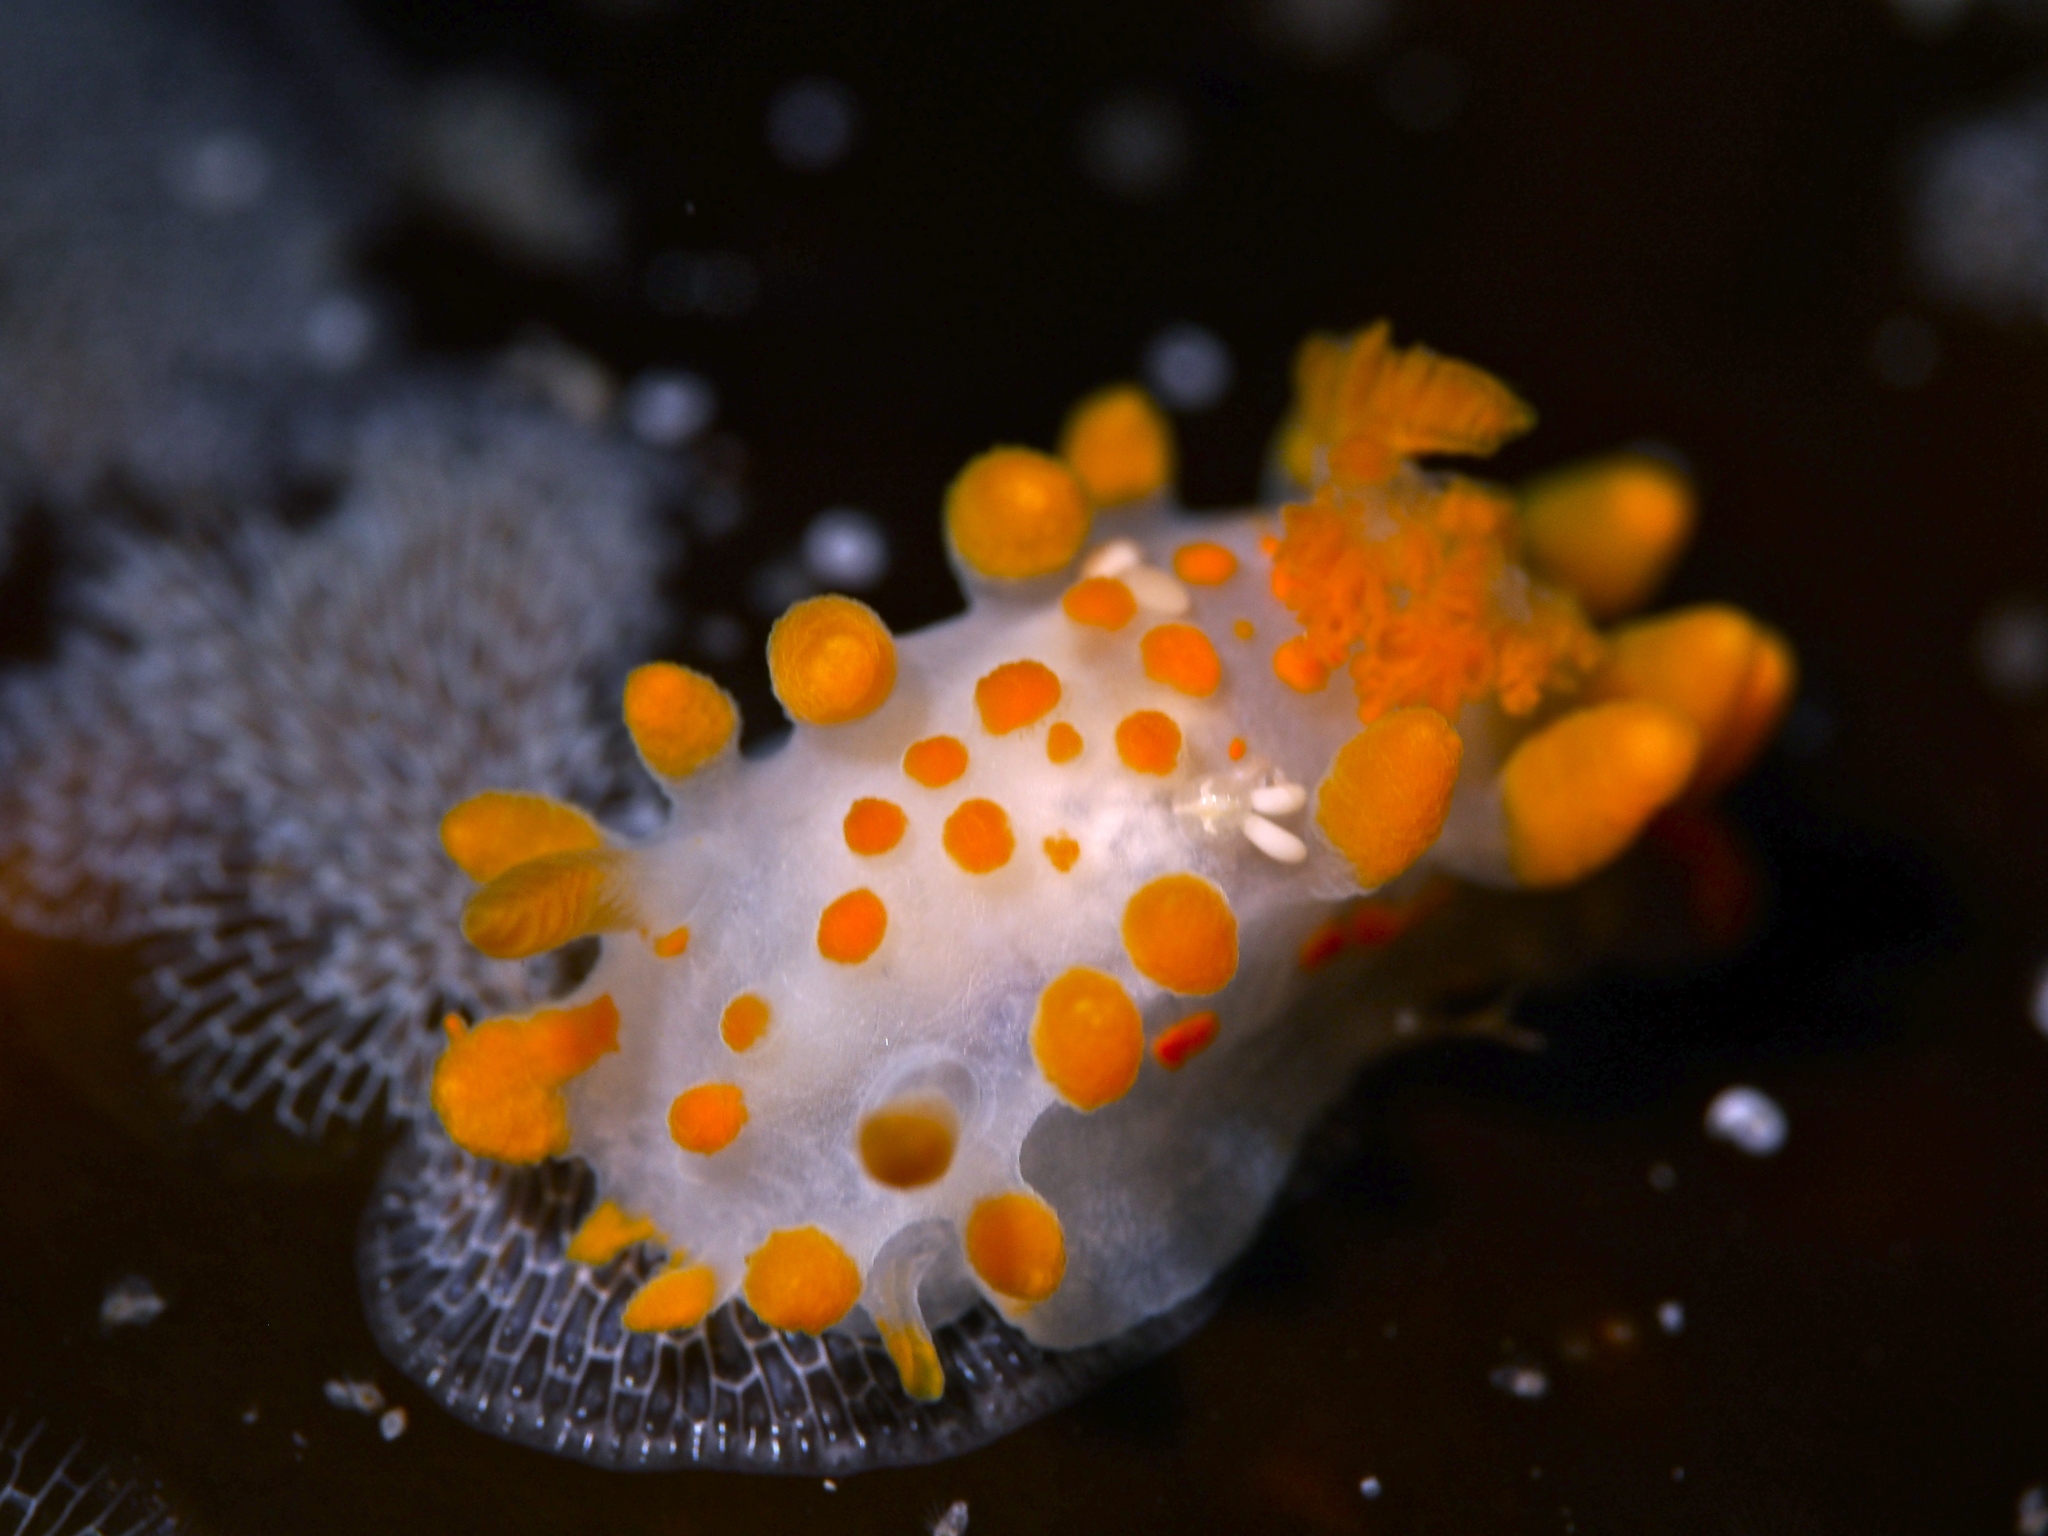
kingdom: Animalia
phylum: Mollusca
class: Gastropoda
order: Nudibranchia
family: Polyceridae
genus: Limacia
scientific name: Limacia clavigera
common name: Orange-clubbed sea slug
